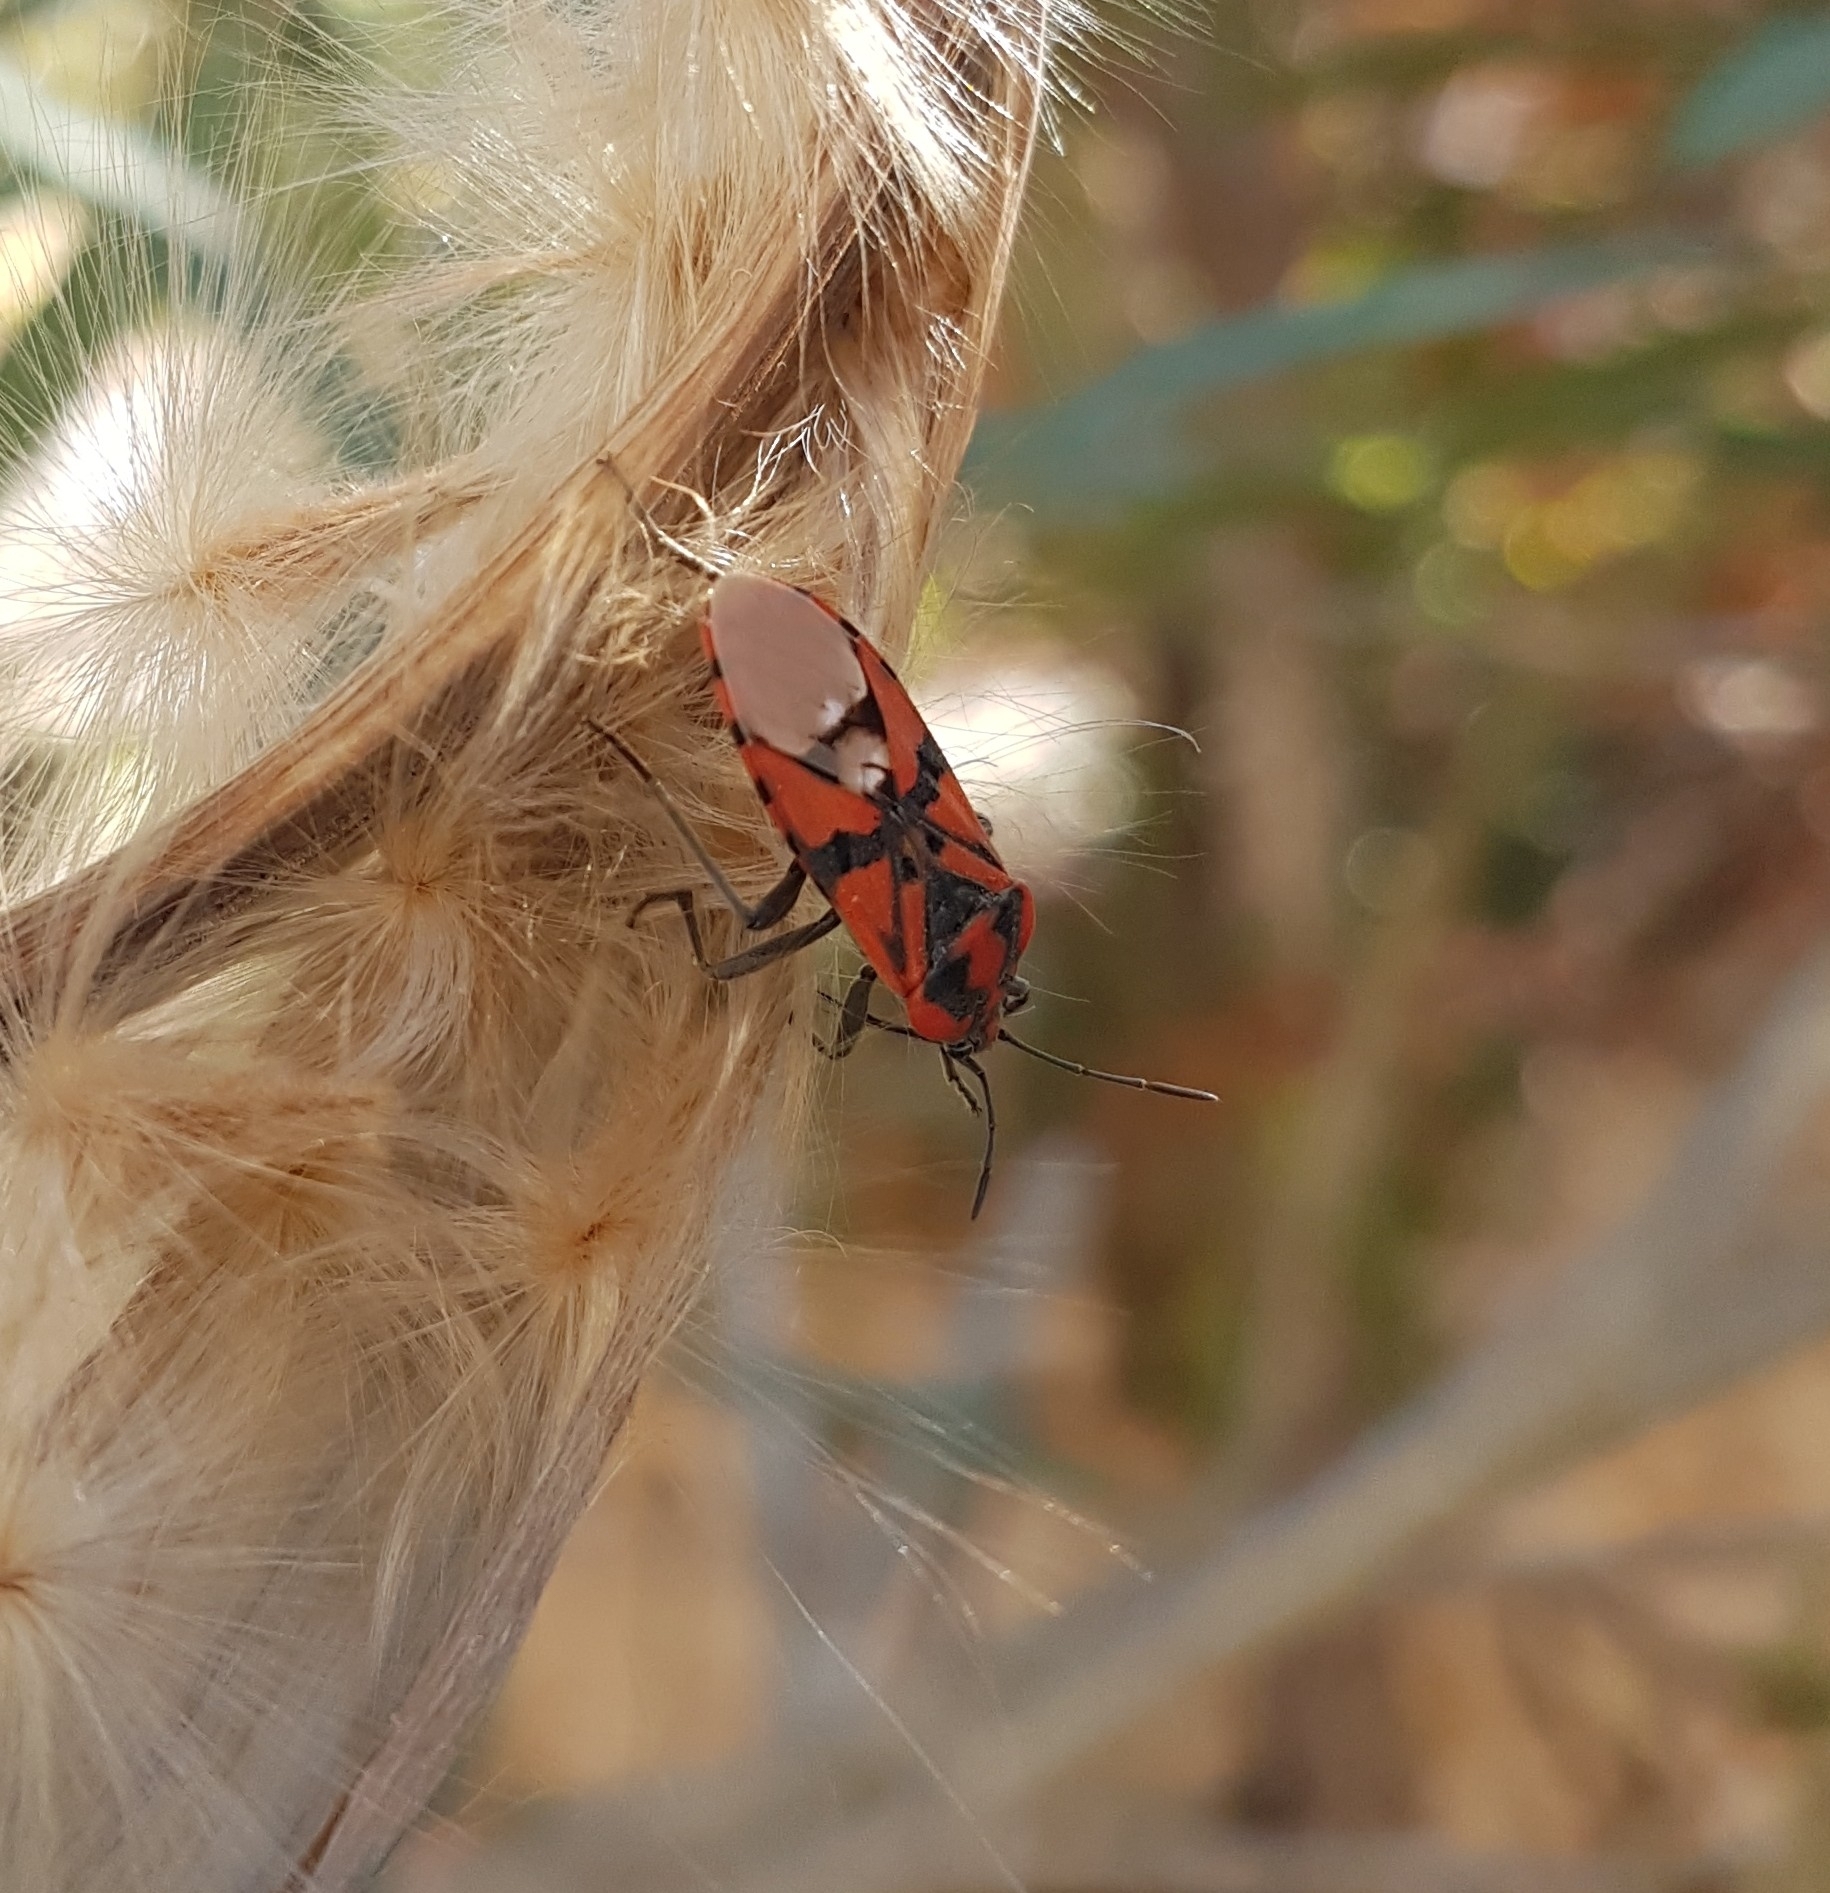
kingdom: Animalia
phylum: Arthropoda
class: Insecta
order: Hemiptera
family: Lygaeidae
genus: Spilostethus
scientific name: Spilostethus pandurus
